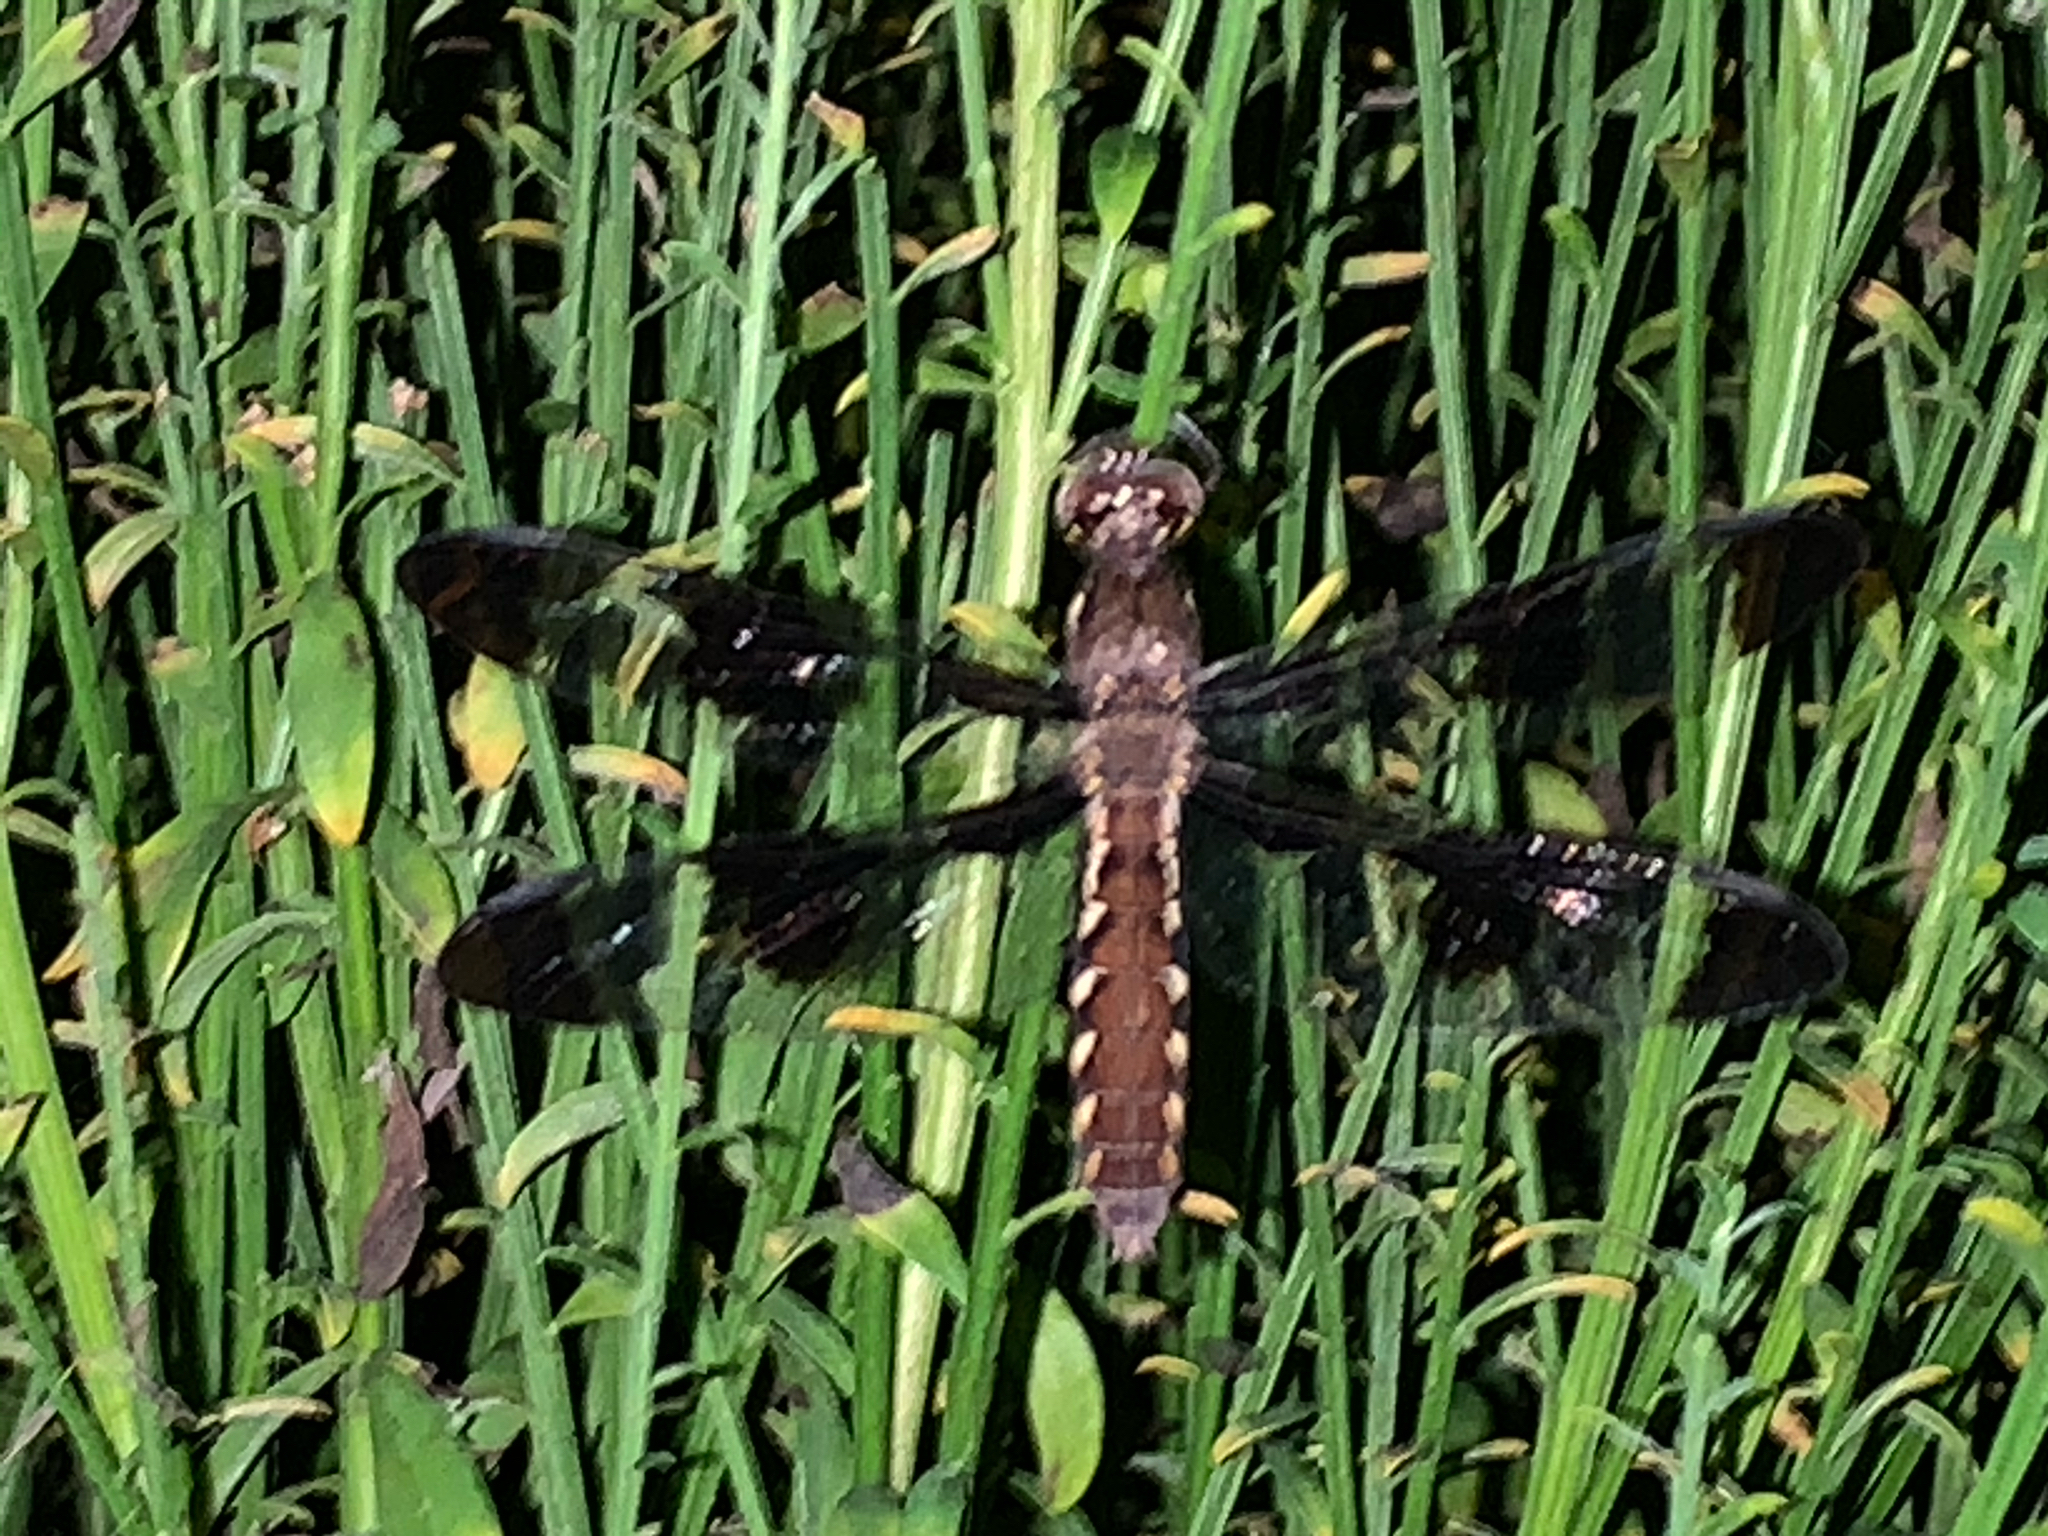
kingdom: Animalia
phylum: Arthropoda
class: Insecta
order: Odonata
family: Libellulidae
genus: Plathemis
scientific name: Plathemis lydia
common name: Common whitetail
